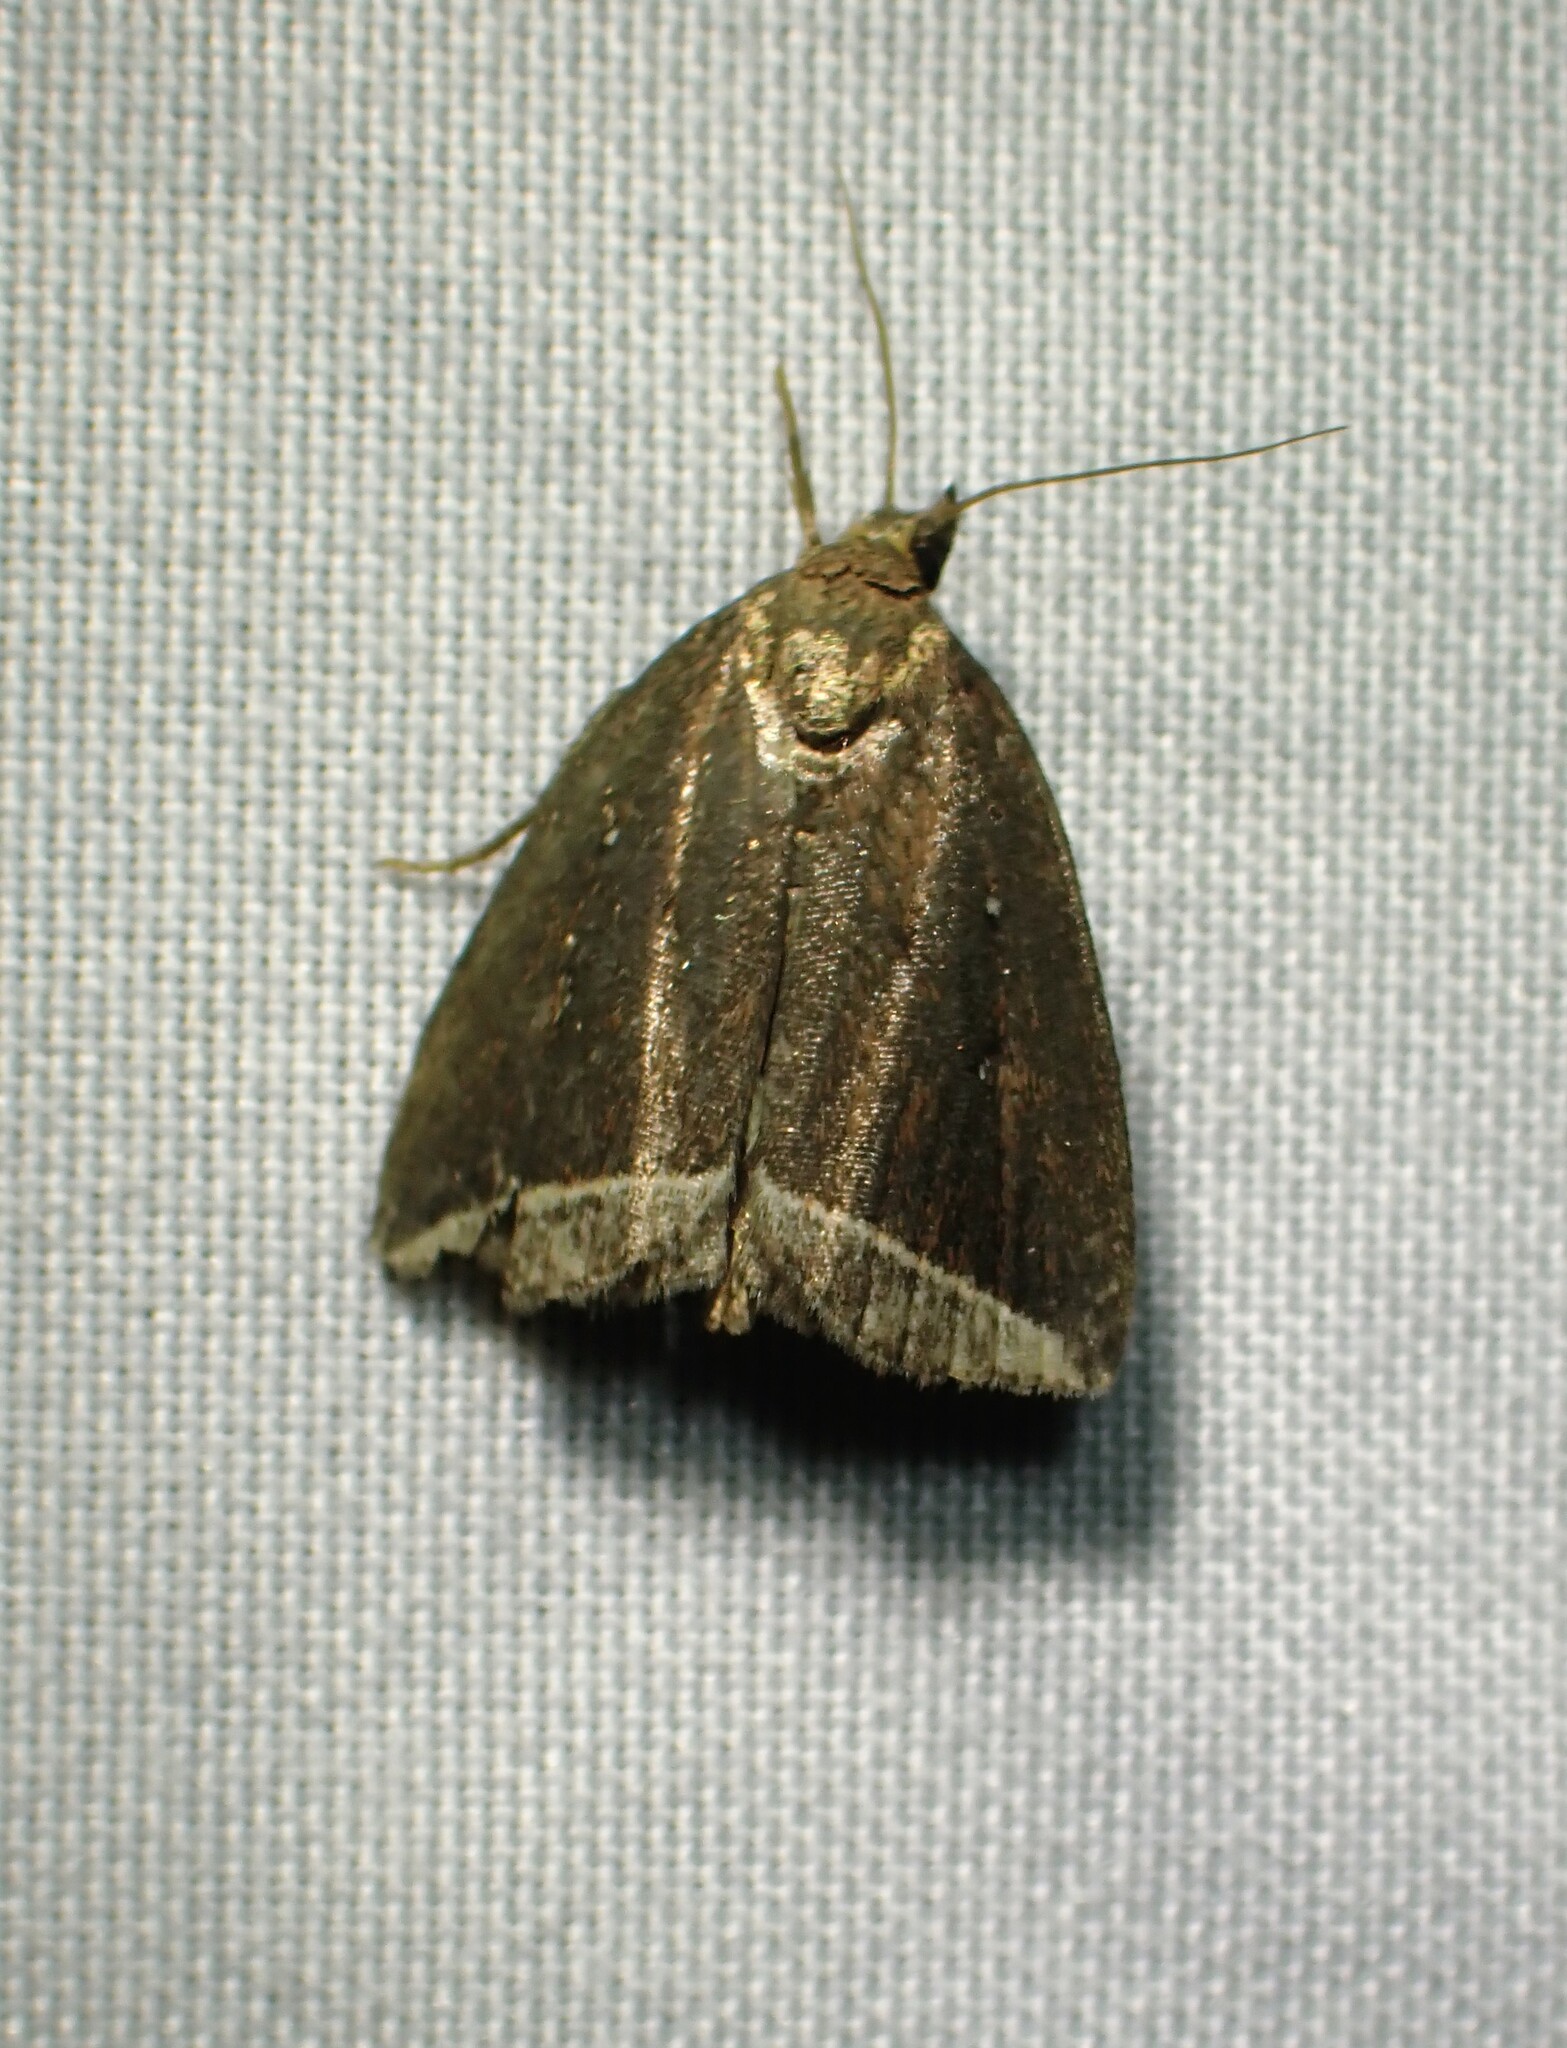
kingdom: Animalia
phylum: Arthropoda
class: Insecta
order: Lepidoptera
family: Erebidae
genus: Capis
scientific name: Capis curvata
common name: Curved halter moth
